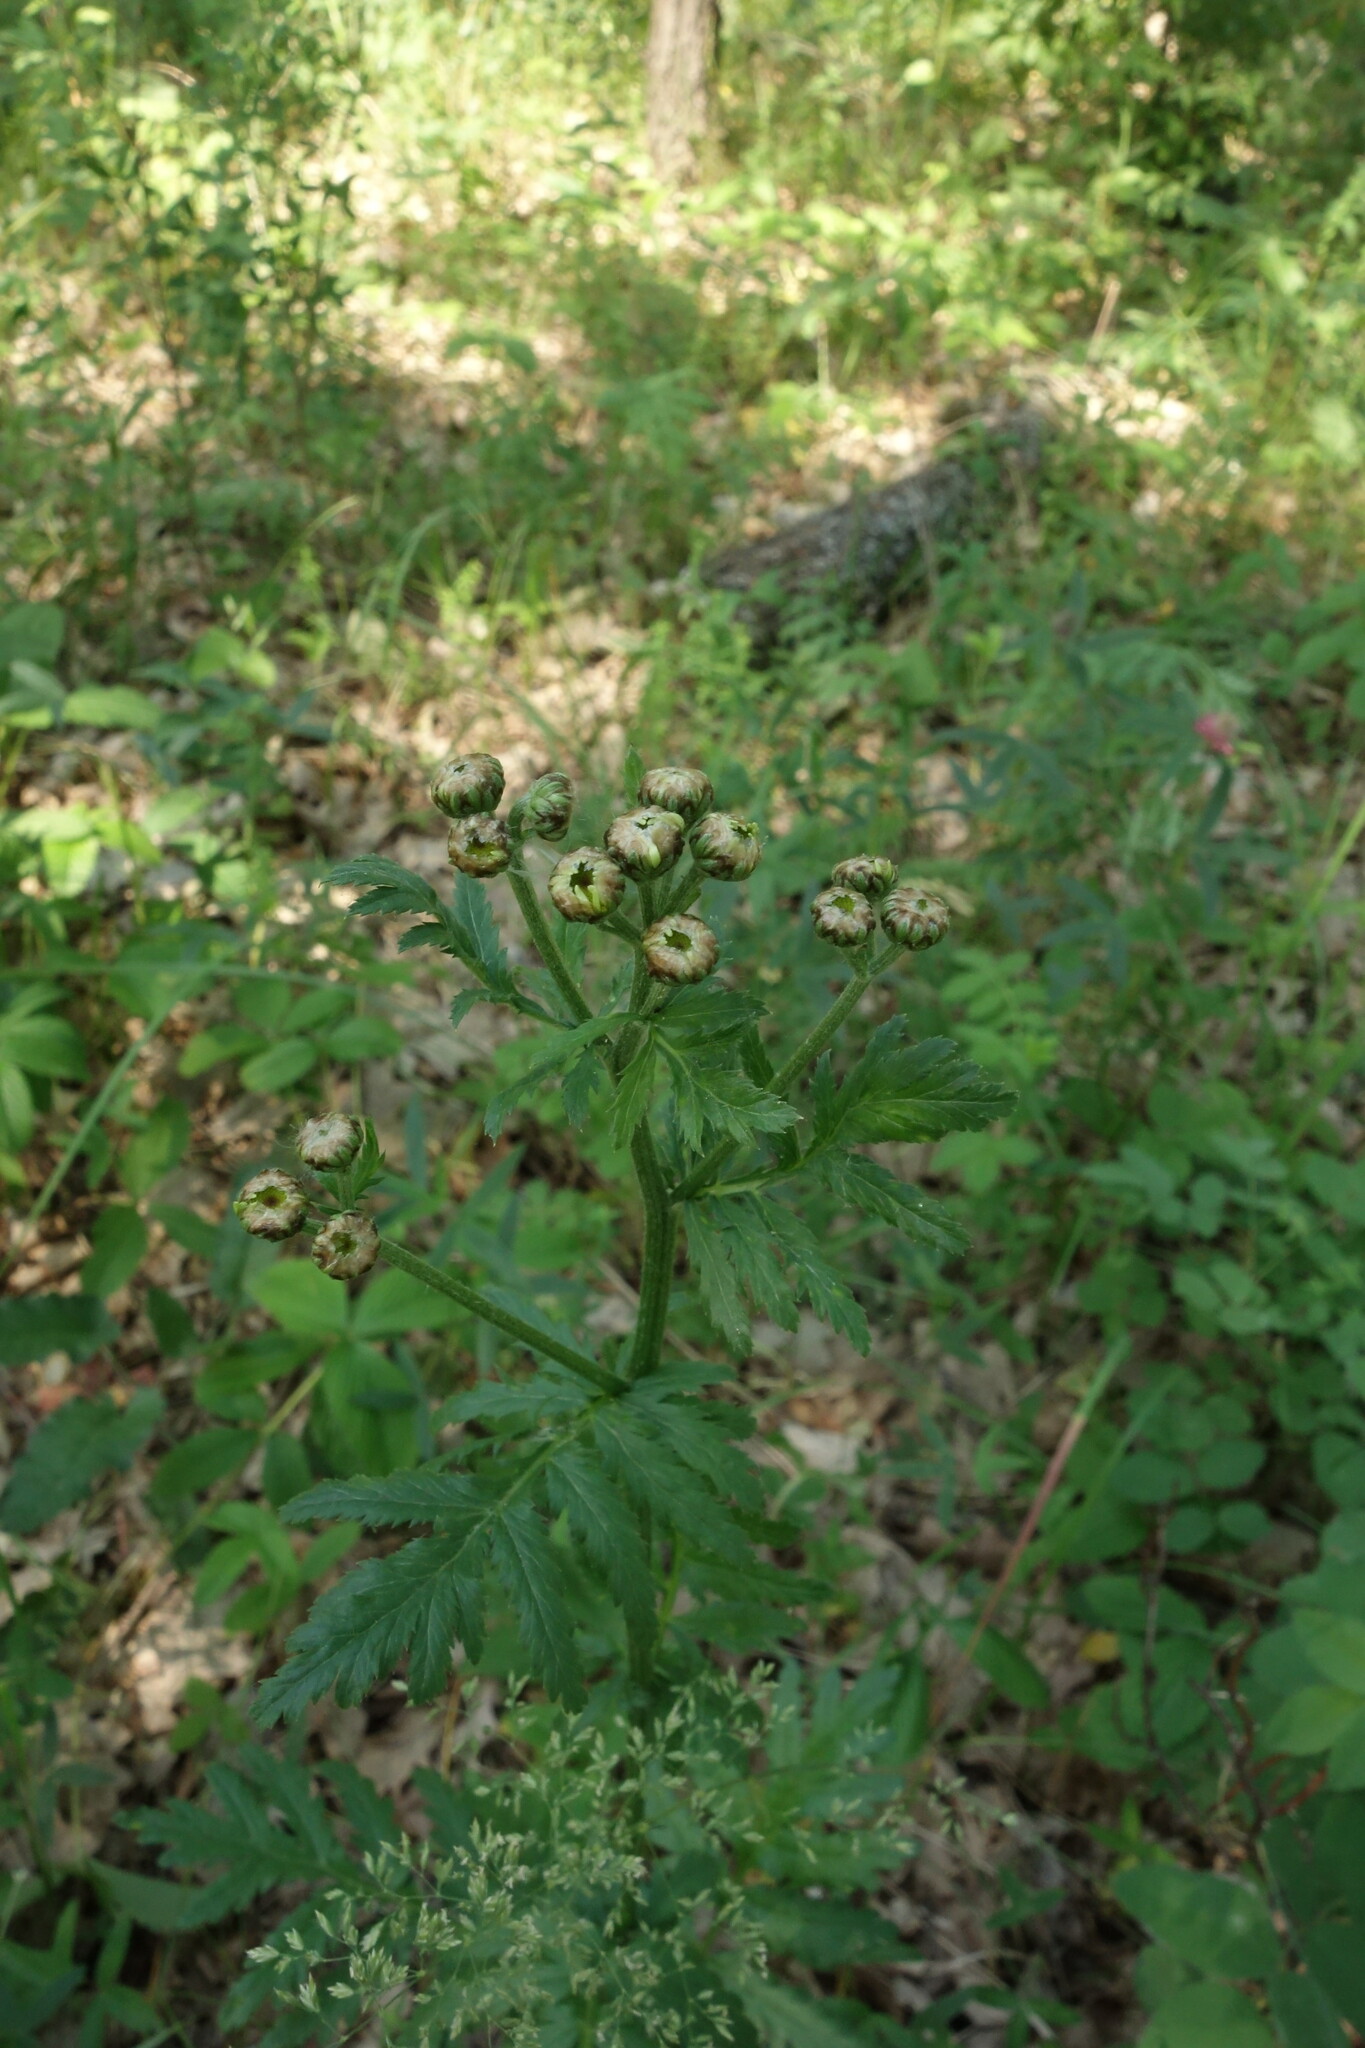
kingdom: Plantae
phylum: Tracheophyta
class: Magnoliopsida
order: Asterales
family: Asteraceae
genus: Tanacetum
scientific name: Tanacetum corymbosum
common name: Scentless feverfew
